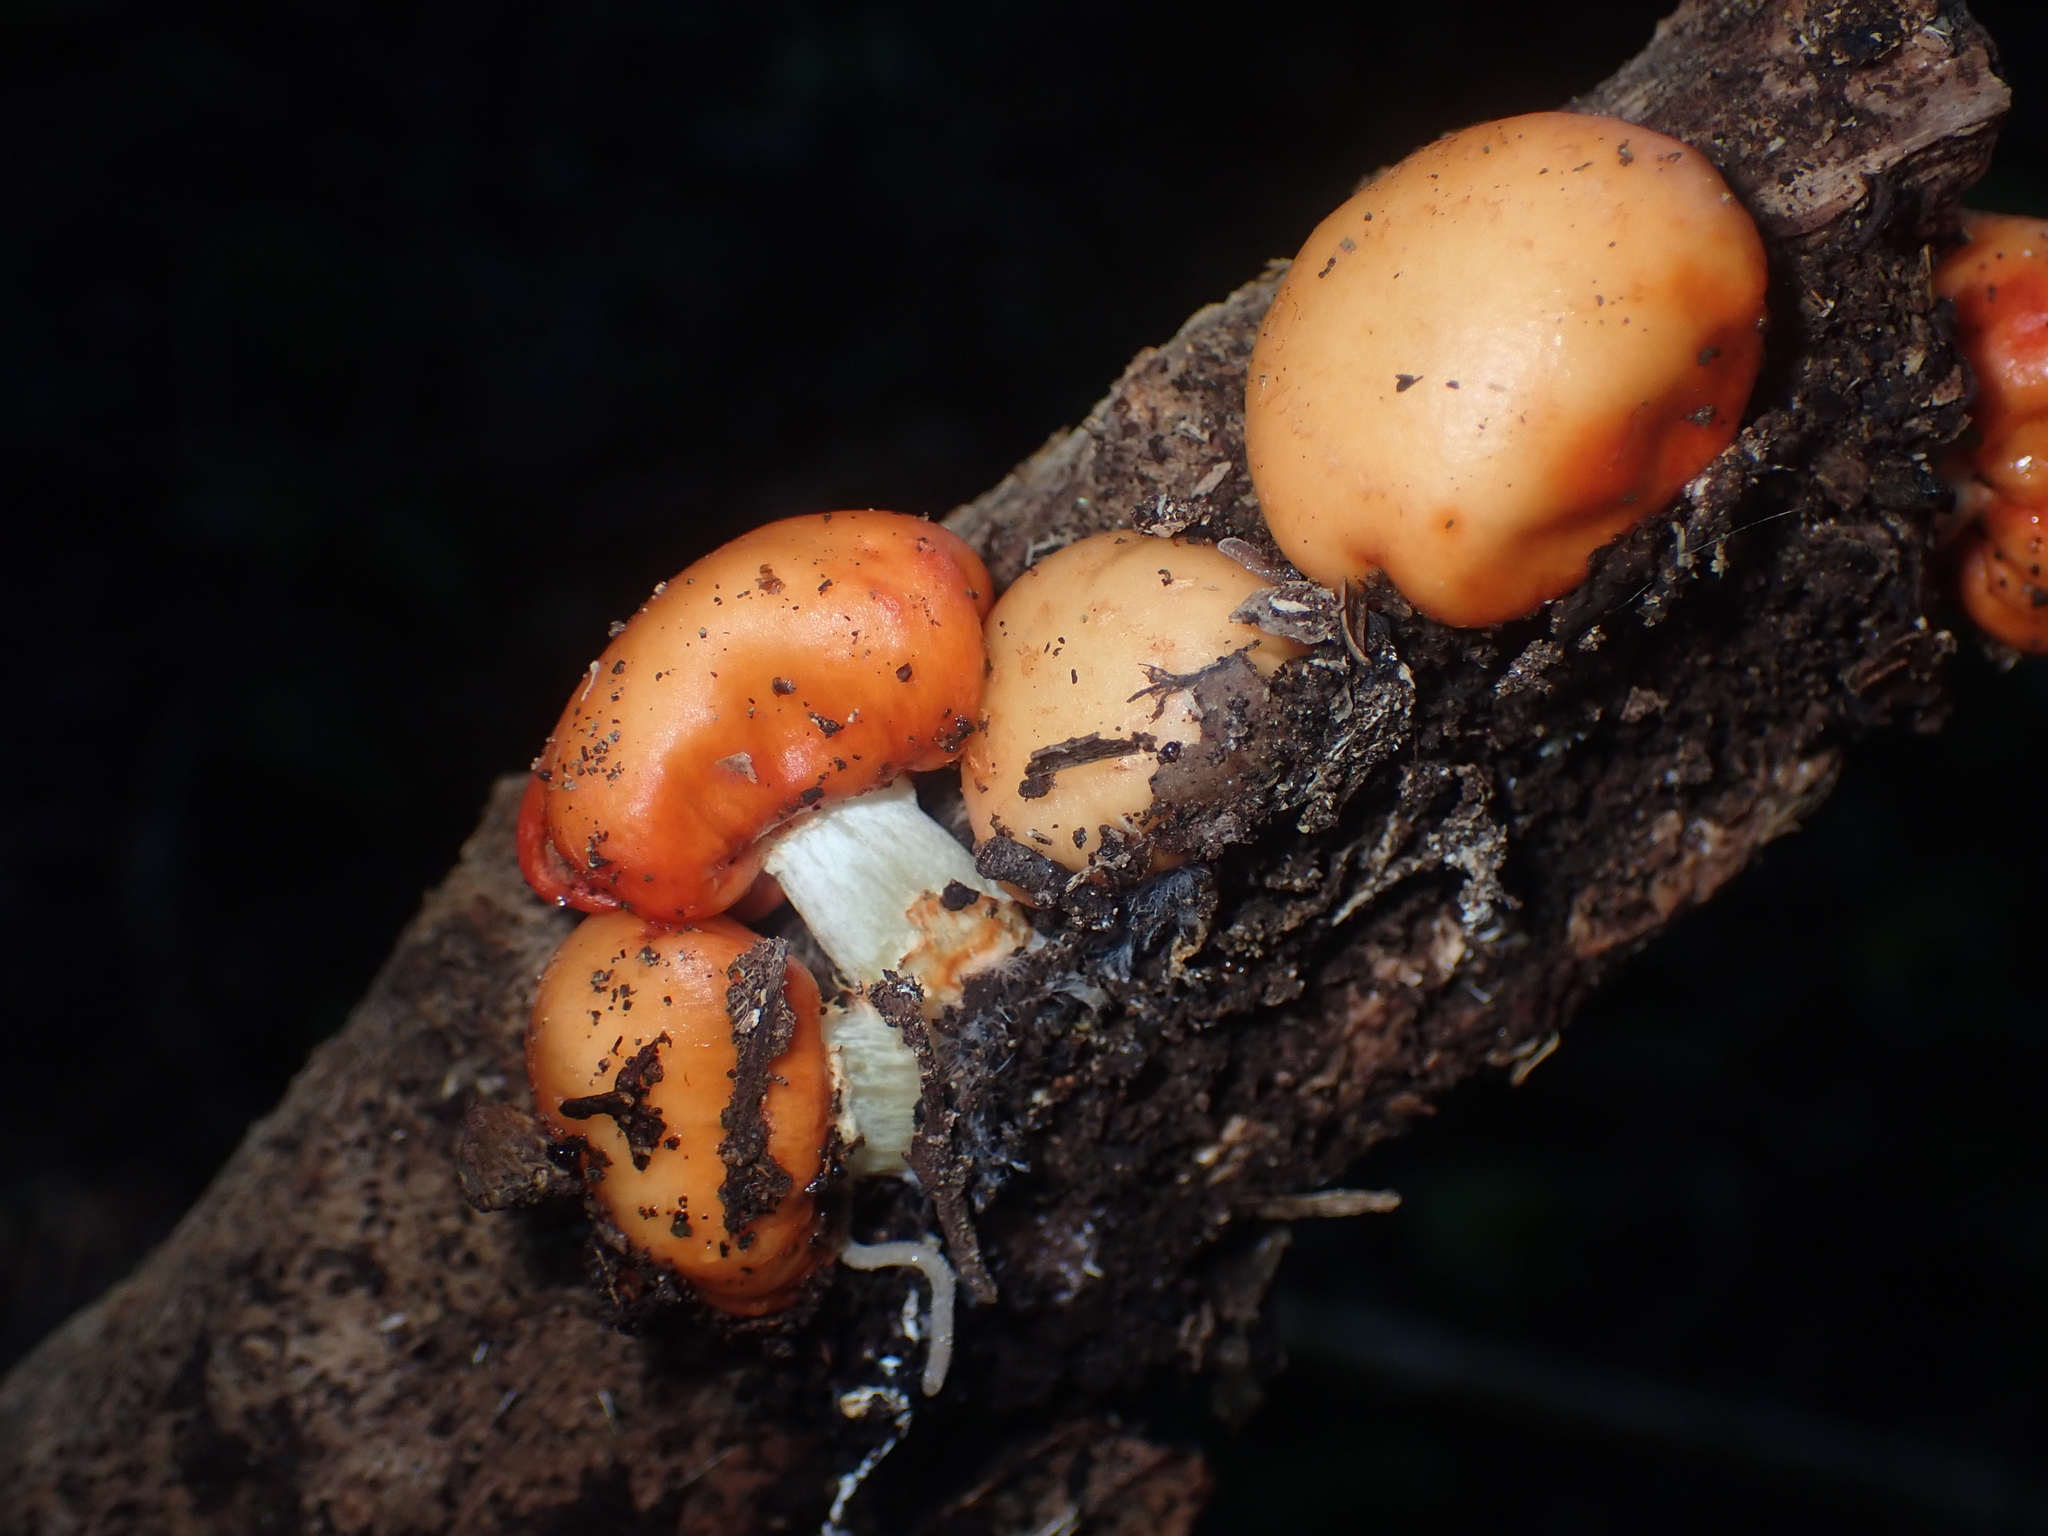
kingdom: Fungi
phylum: Basidiomycota
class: Agaricomycetes
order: Agaricales
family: Strophariaceae
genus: Leratiomyces
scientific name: Leratiomyces erythrocephalus
